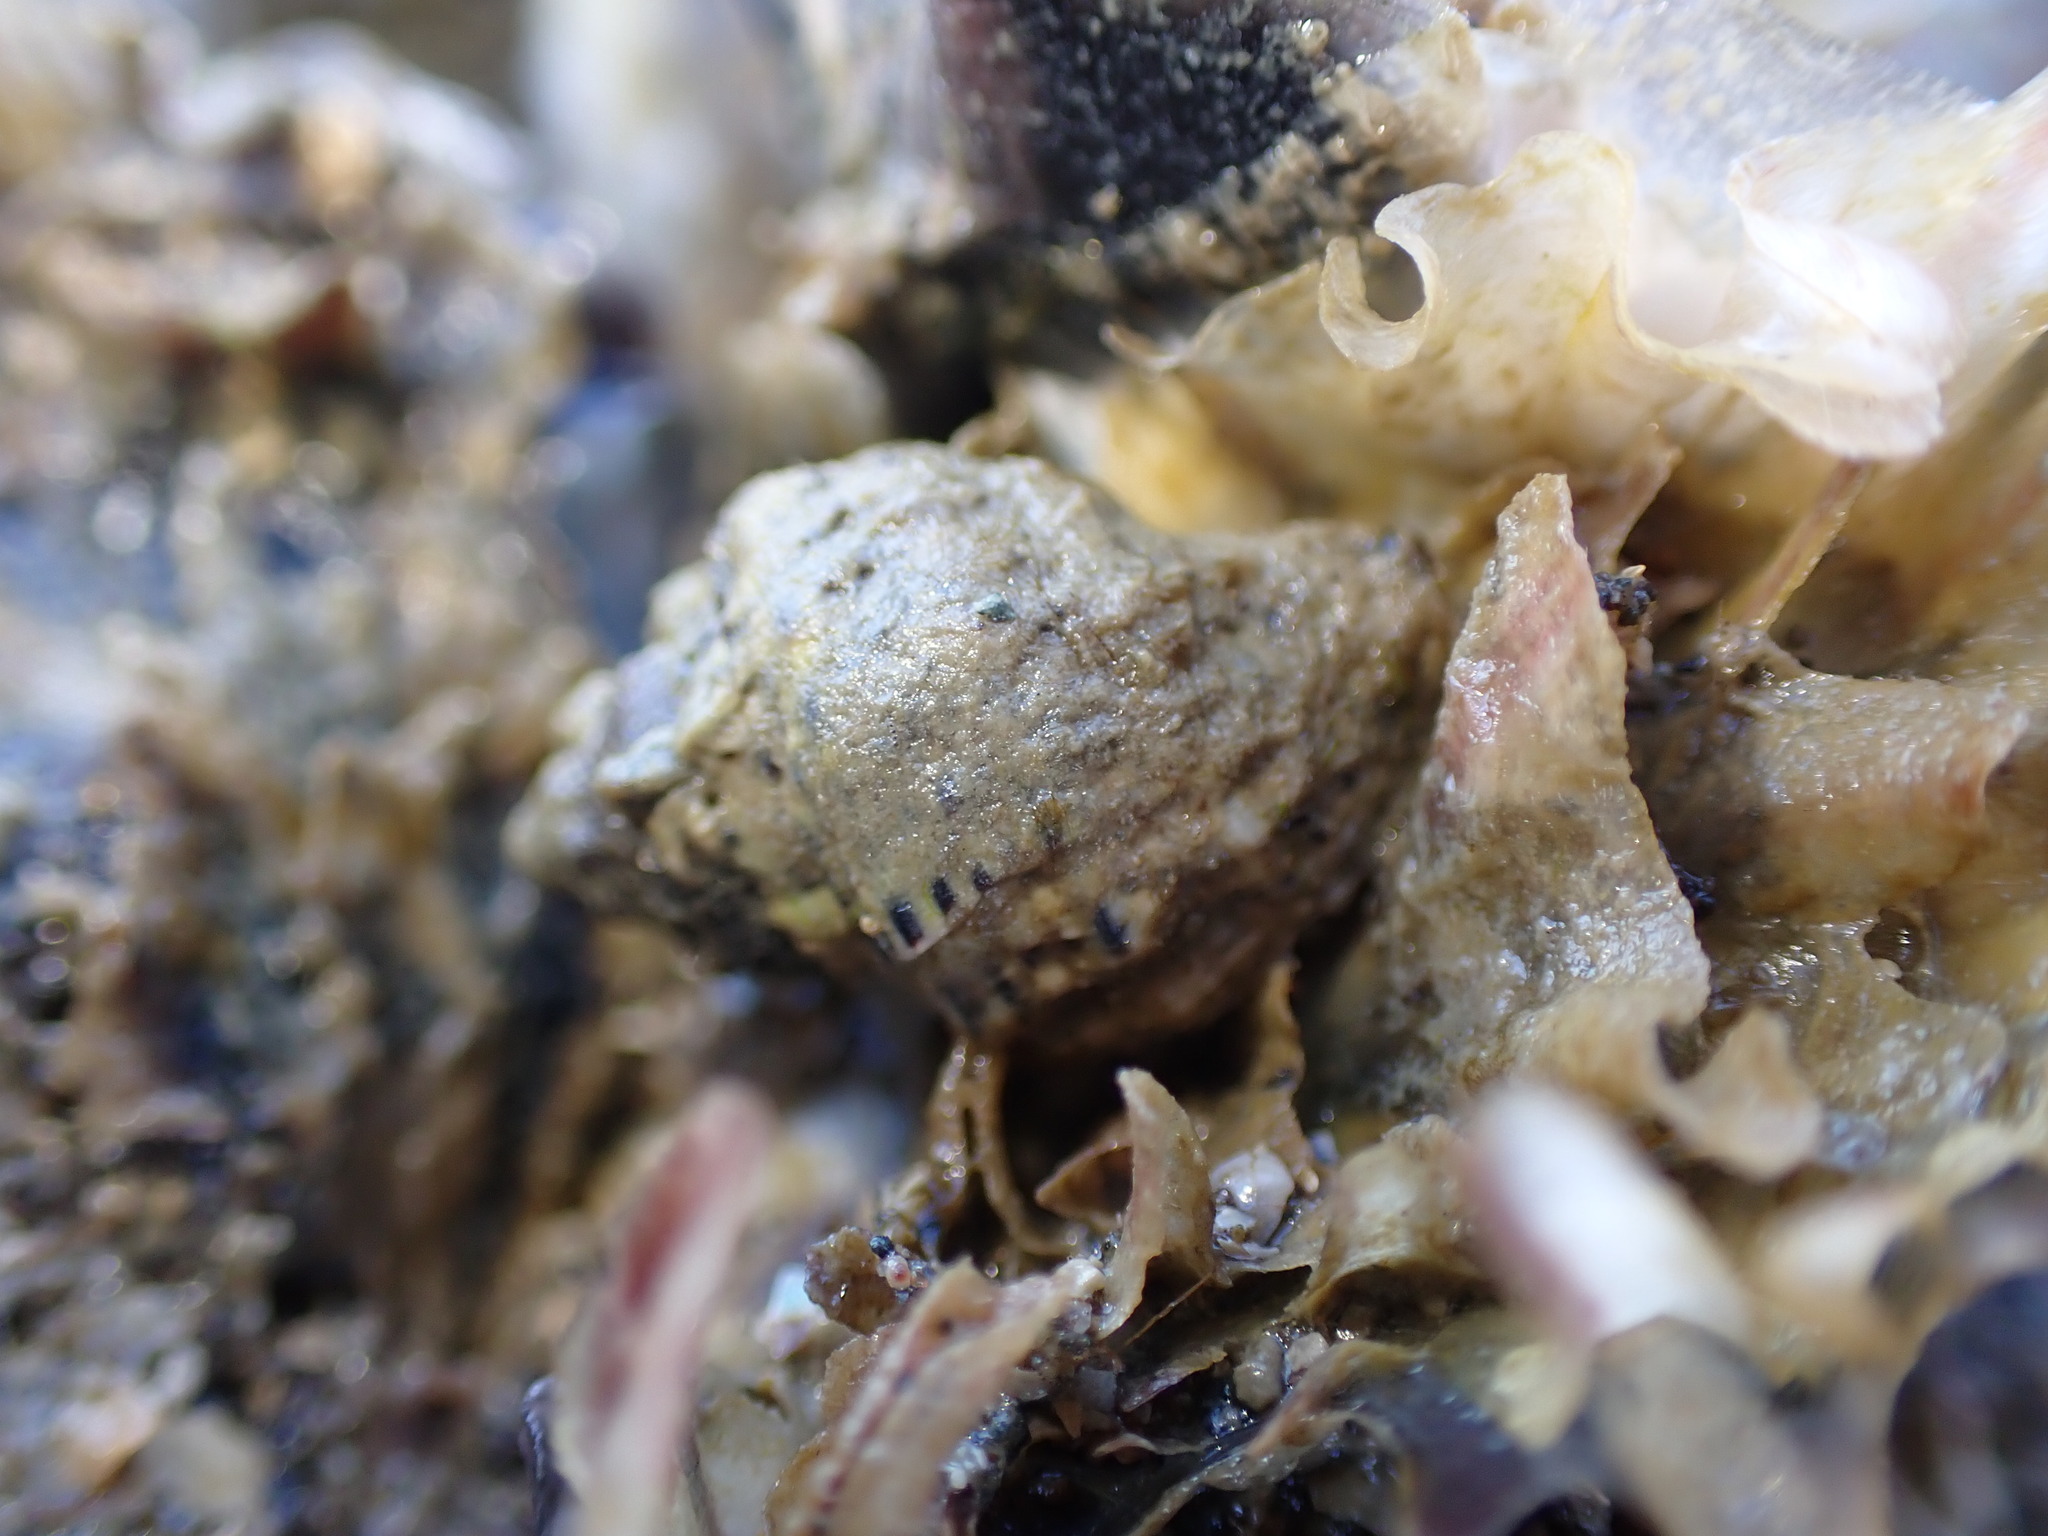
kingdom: Animalia
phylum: Mollusca
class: Gastropoda
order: Neogastropoda
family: Muricidae
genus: Haustrum
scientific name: Haustrum scobina
